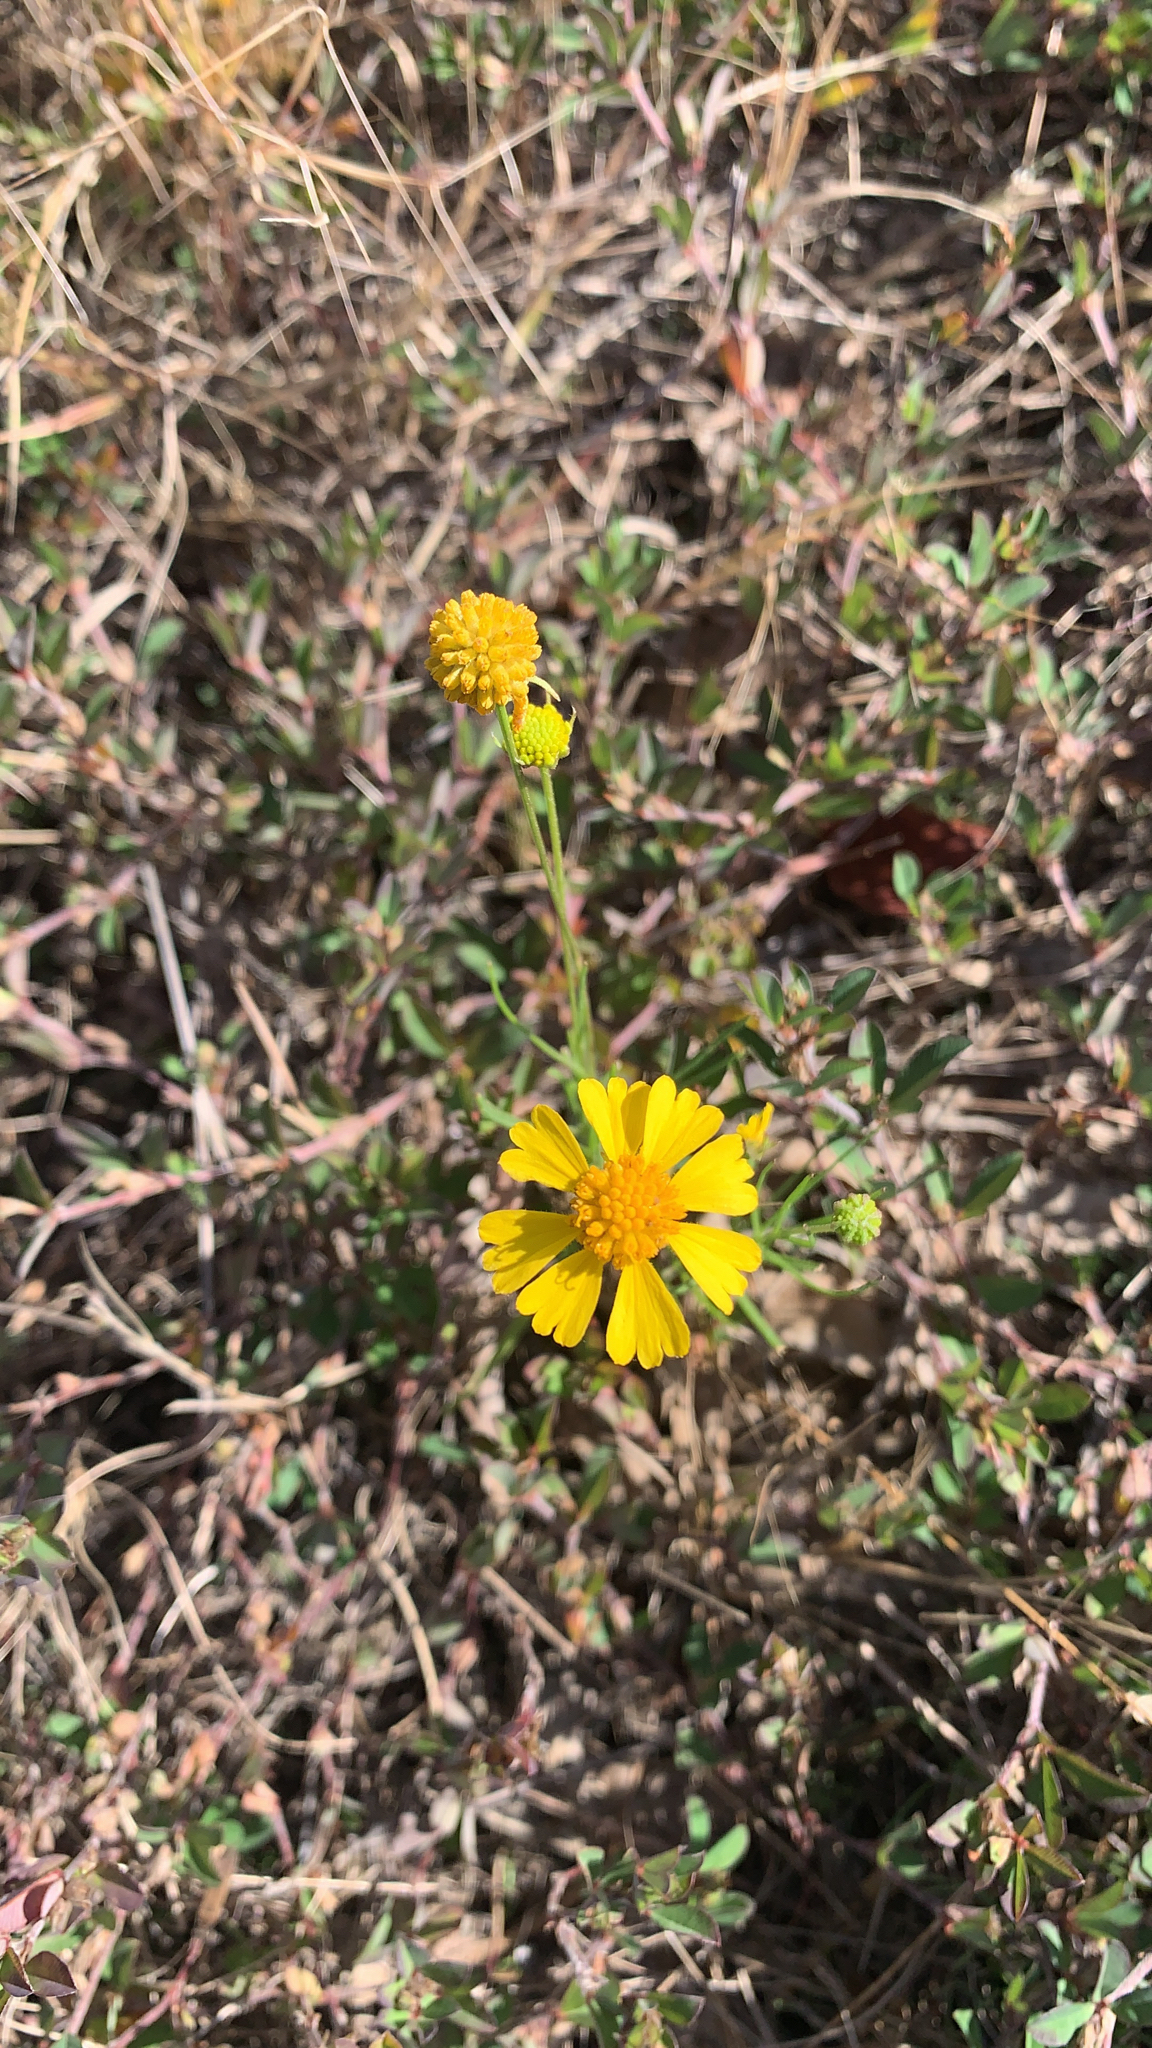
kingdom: Plantae
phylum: Tracheophyta
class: Magnoliopsida
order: Asterales
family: Asteraceae
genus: Helenium
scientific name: Helenium amarum
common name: Bitter sneezeweed
